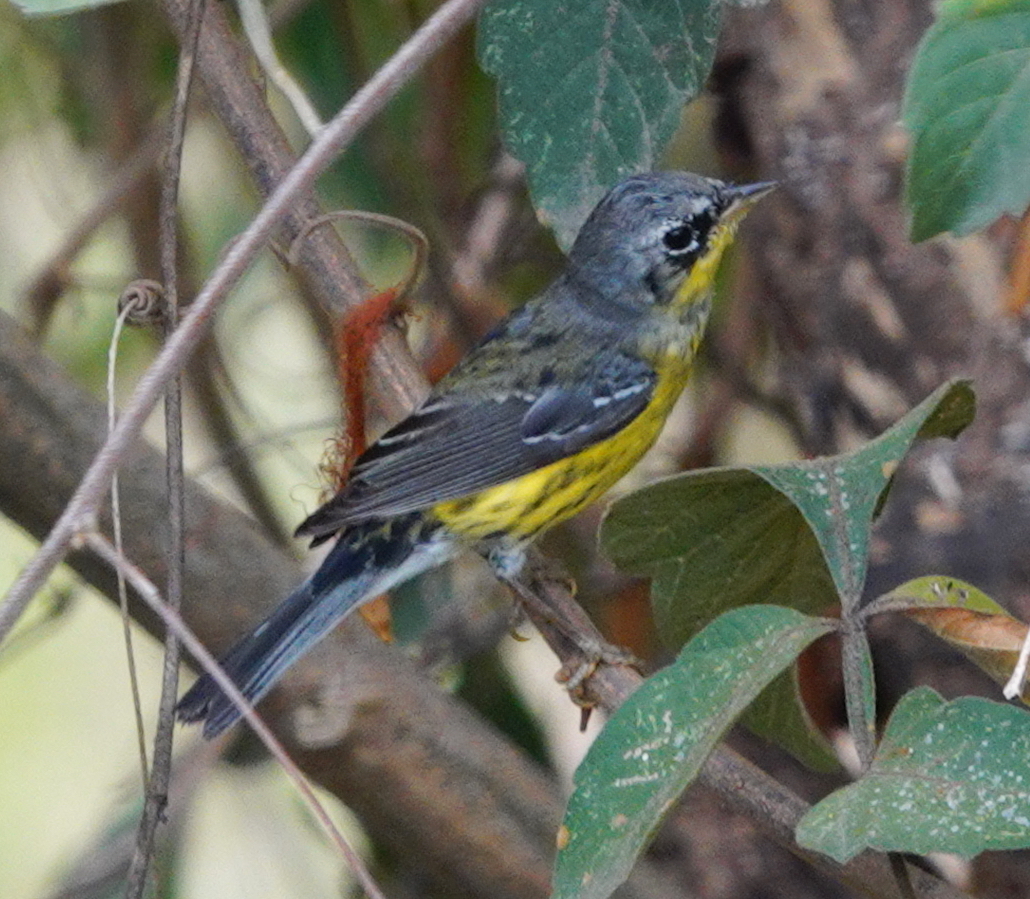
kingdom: Animalia
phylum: Chordata
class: Aves
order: Passeriformes
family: Parulidae
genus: Setophaga
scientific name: Setophaga magnolia
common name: Magnolia warbler
